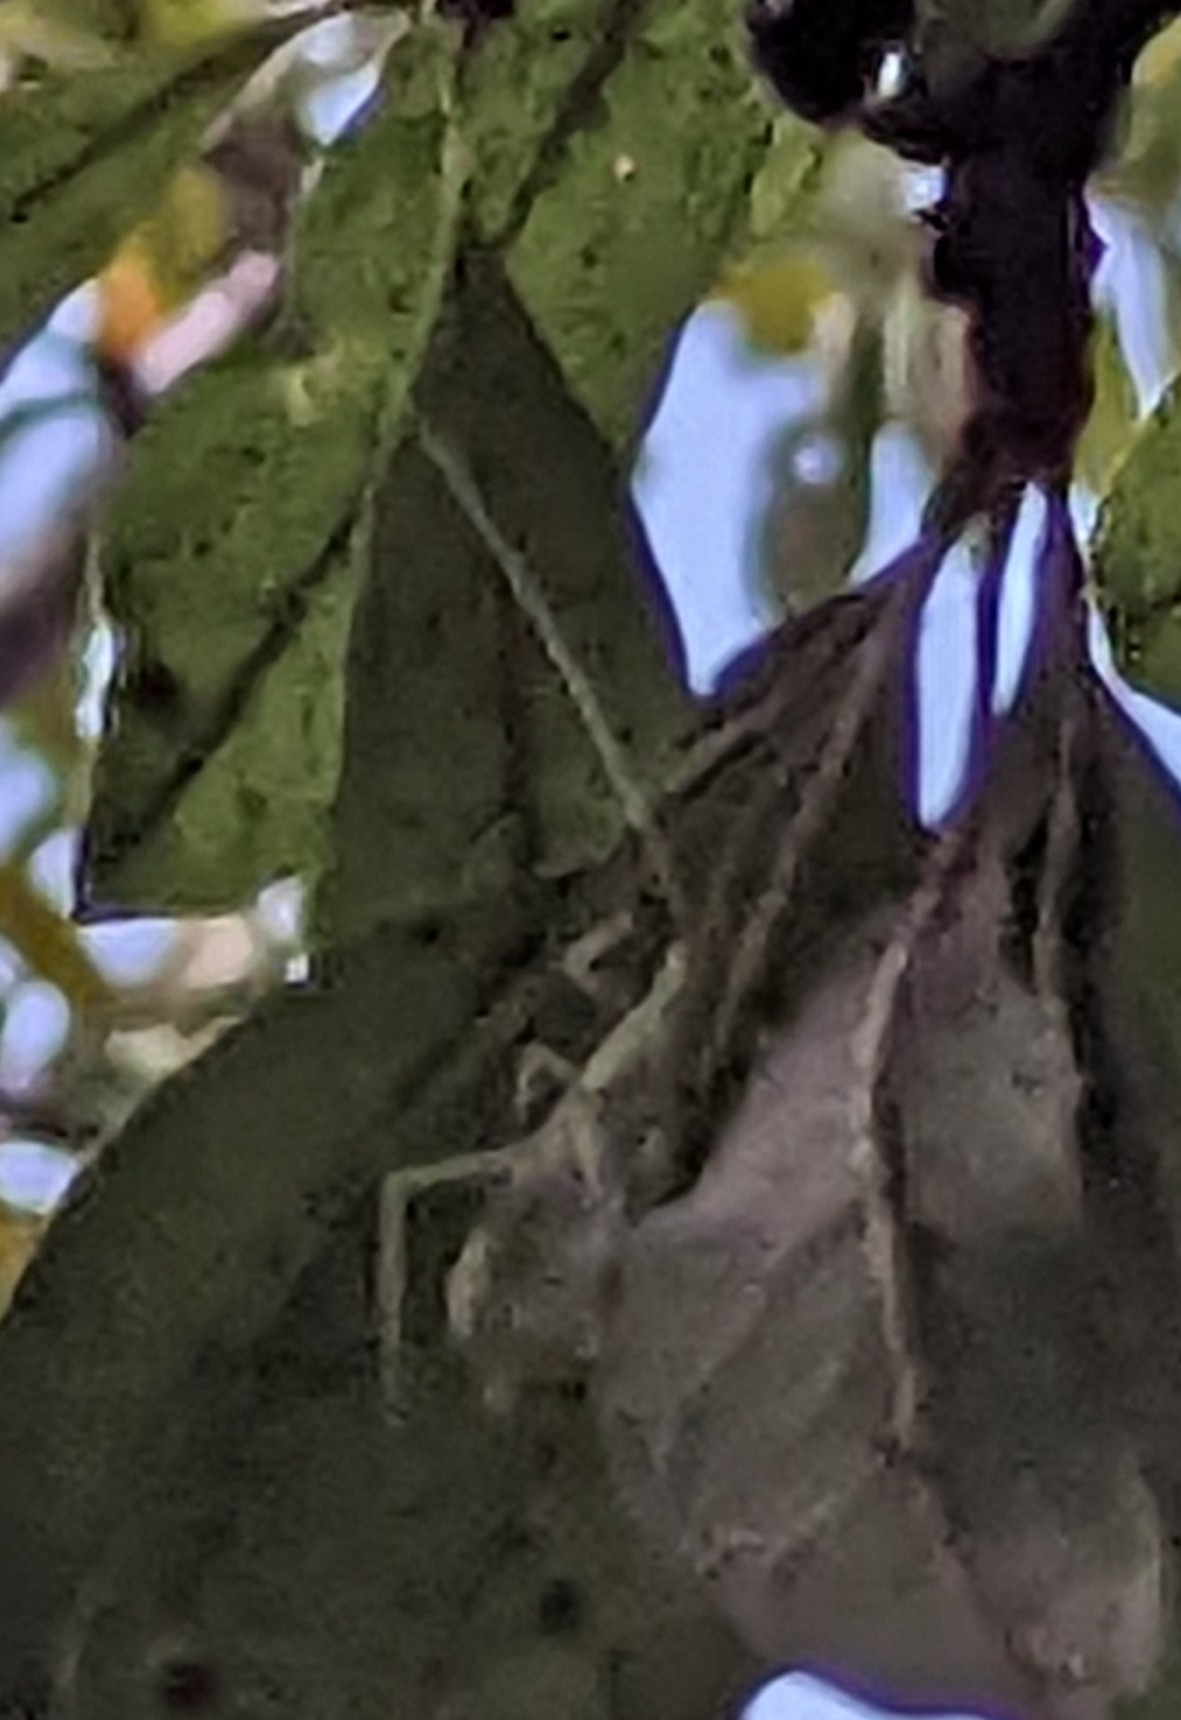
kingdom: Animalia
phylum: Arthropoda
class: Insecta
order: Orthoptera
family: Gryllidae
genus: Oecanthus
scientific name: Oecanthus fultoni
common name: Snowy tree cricket
